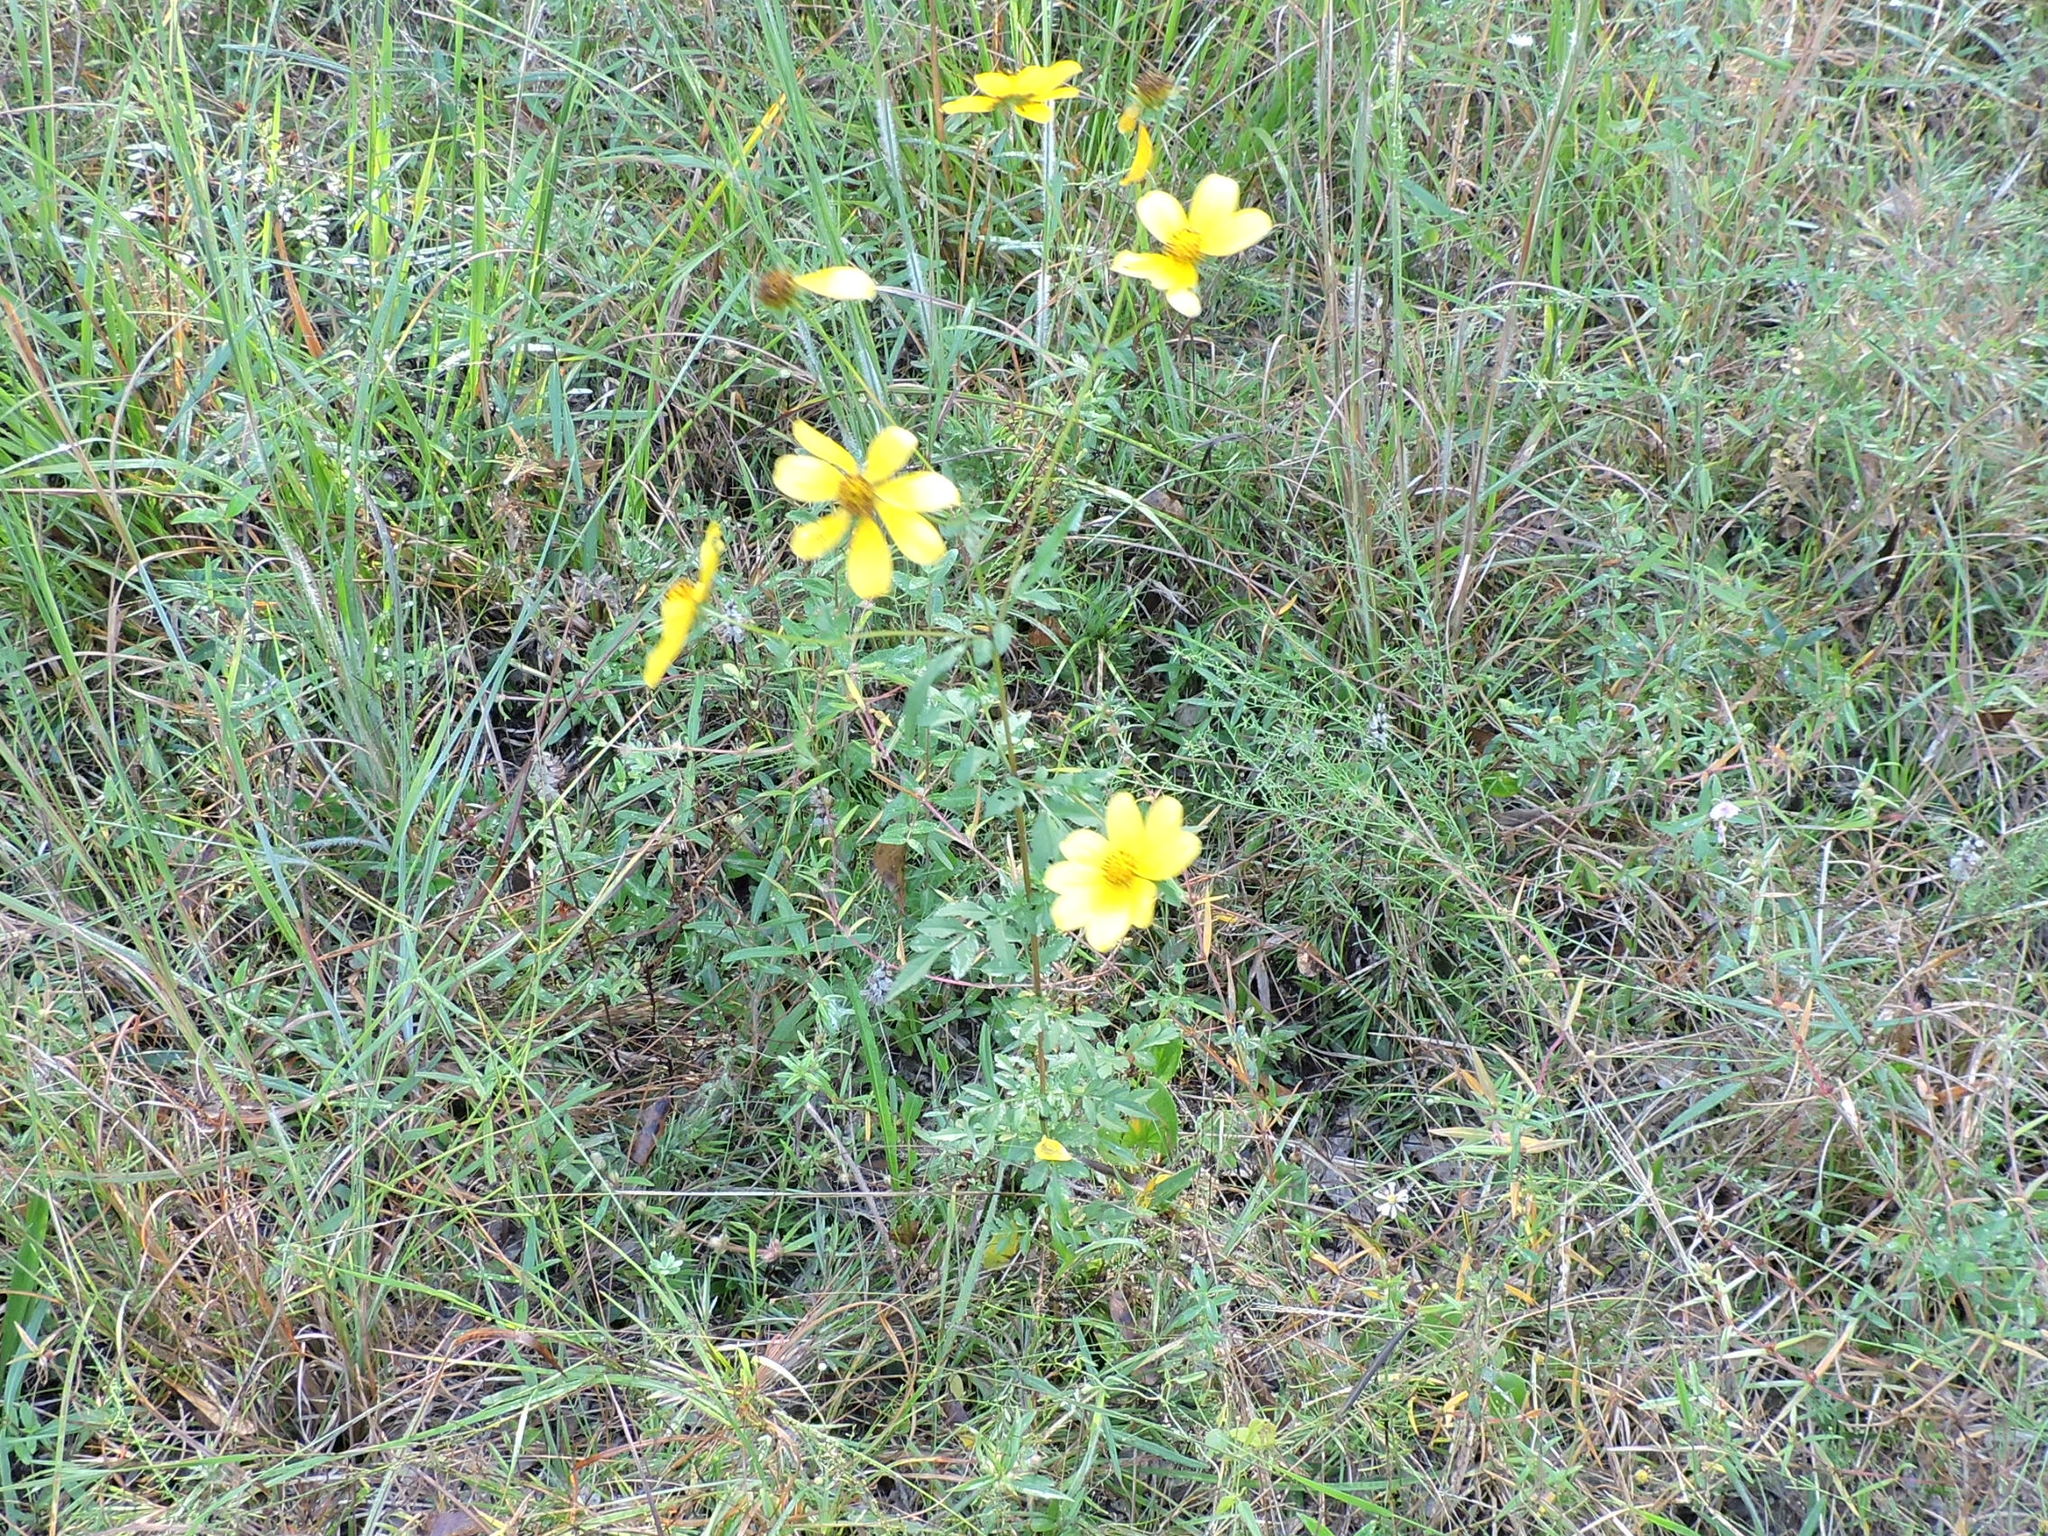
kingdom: Plantae
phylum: Tracheophyta
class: Magnoliopsida
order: Asterales
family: Asteraceae
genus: Bidens
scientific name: Bidens aristosa
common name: Western tickseed
